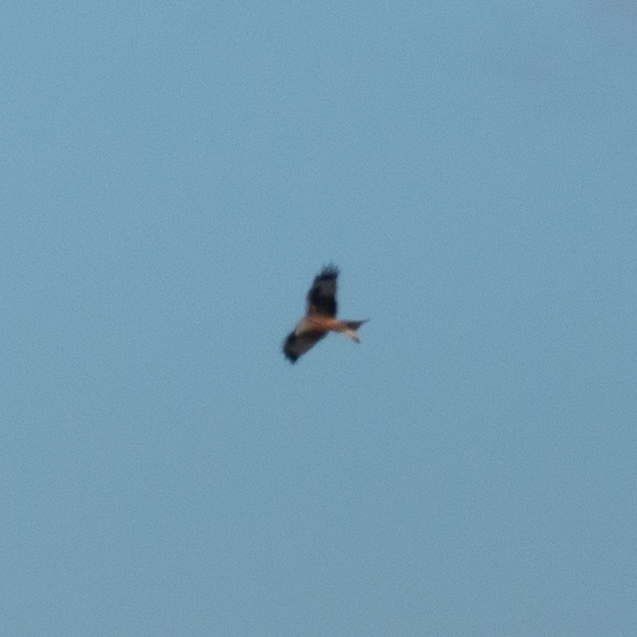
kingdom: Animalia
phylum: Chordata
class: Aves
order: Accipitriformes
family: Accipitridae
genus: Milvus
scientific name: Milvus milvus
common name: Red kite
